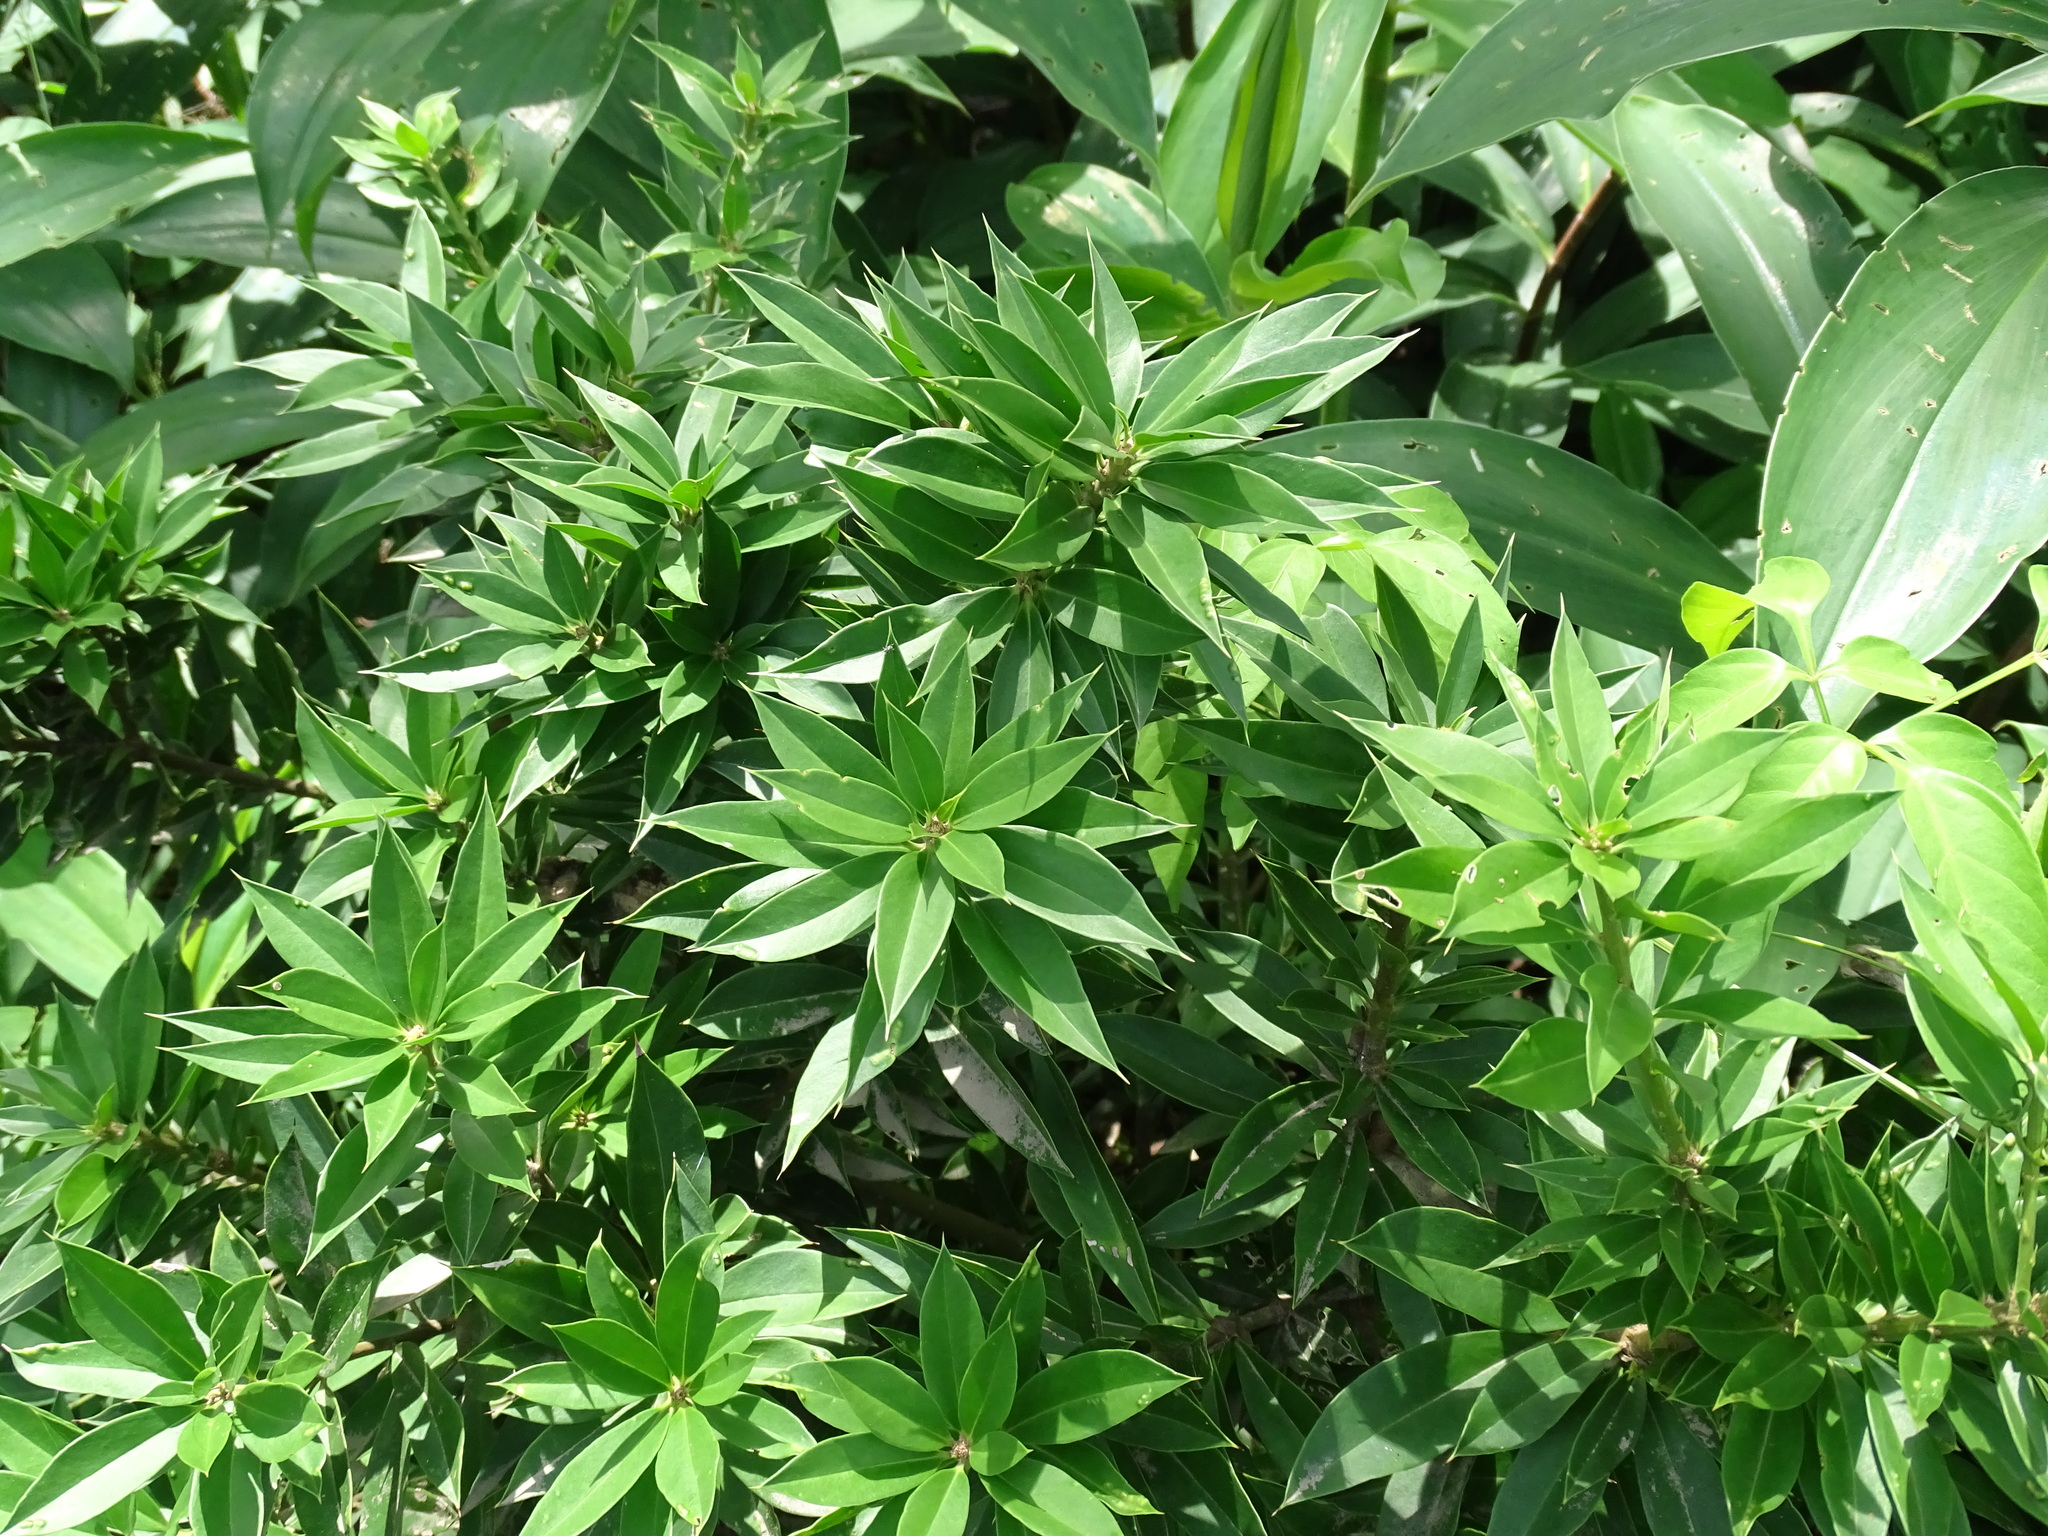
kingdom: Plantae
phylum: Tracheophyta
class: Magnoliopsida
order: Ericales
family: Primulaceae
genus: Bonellia
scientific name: Bonellia macrocarpa
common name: Primrose
